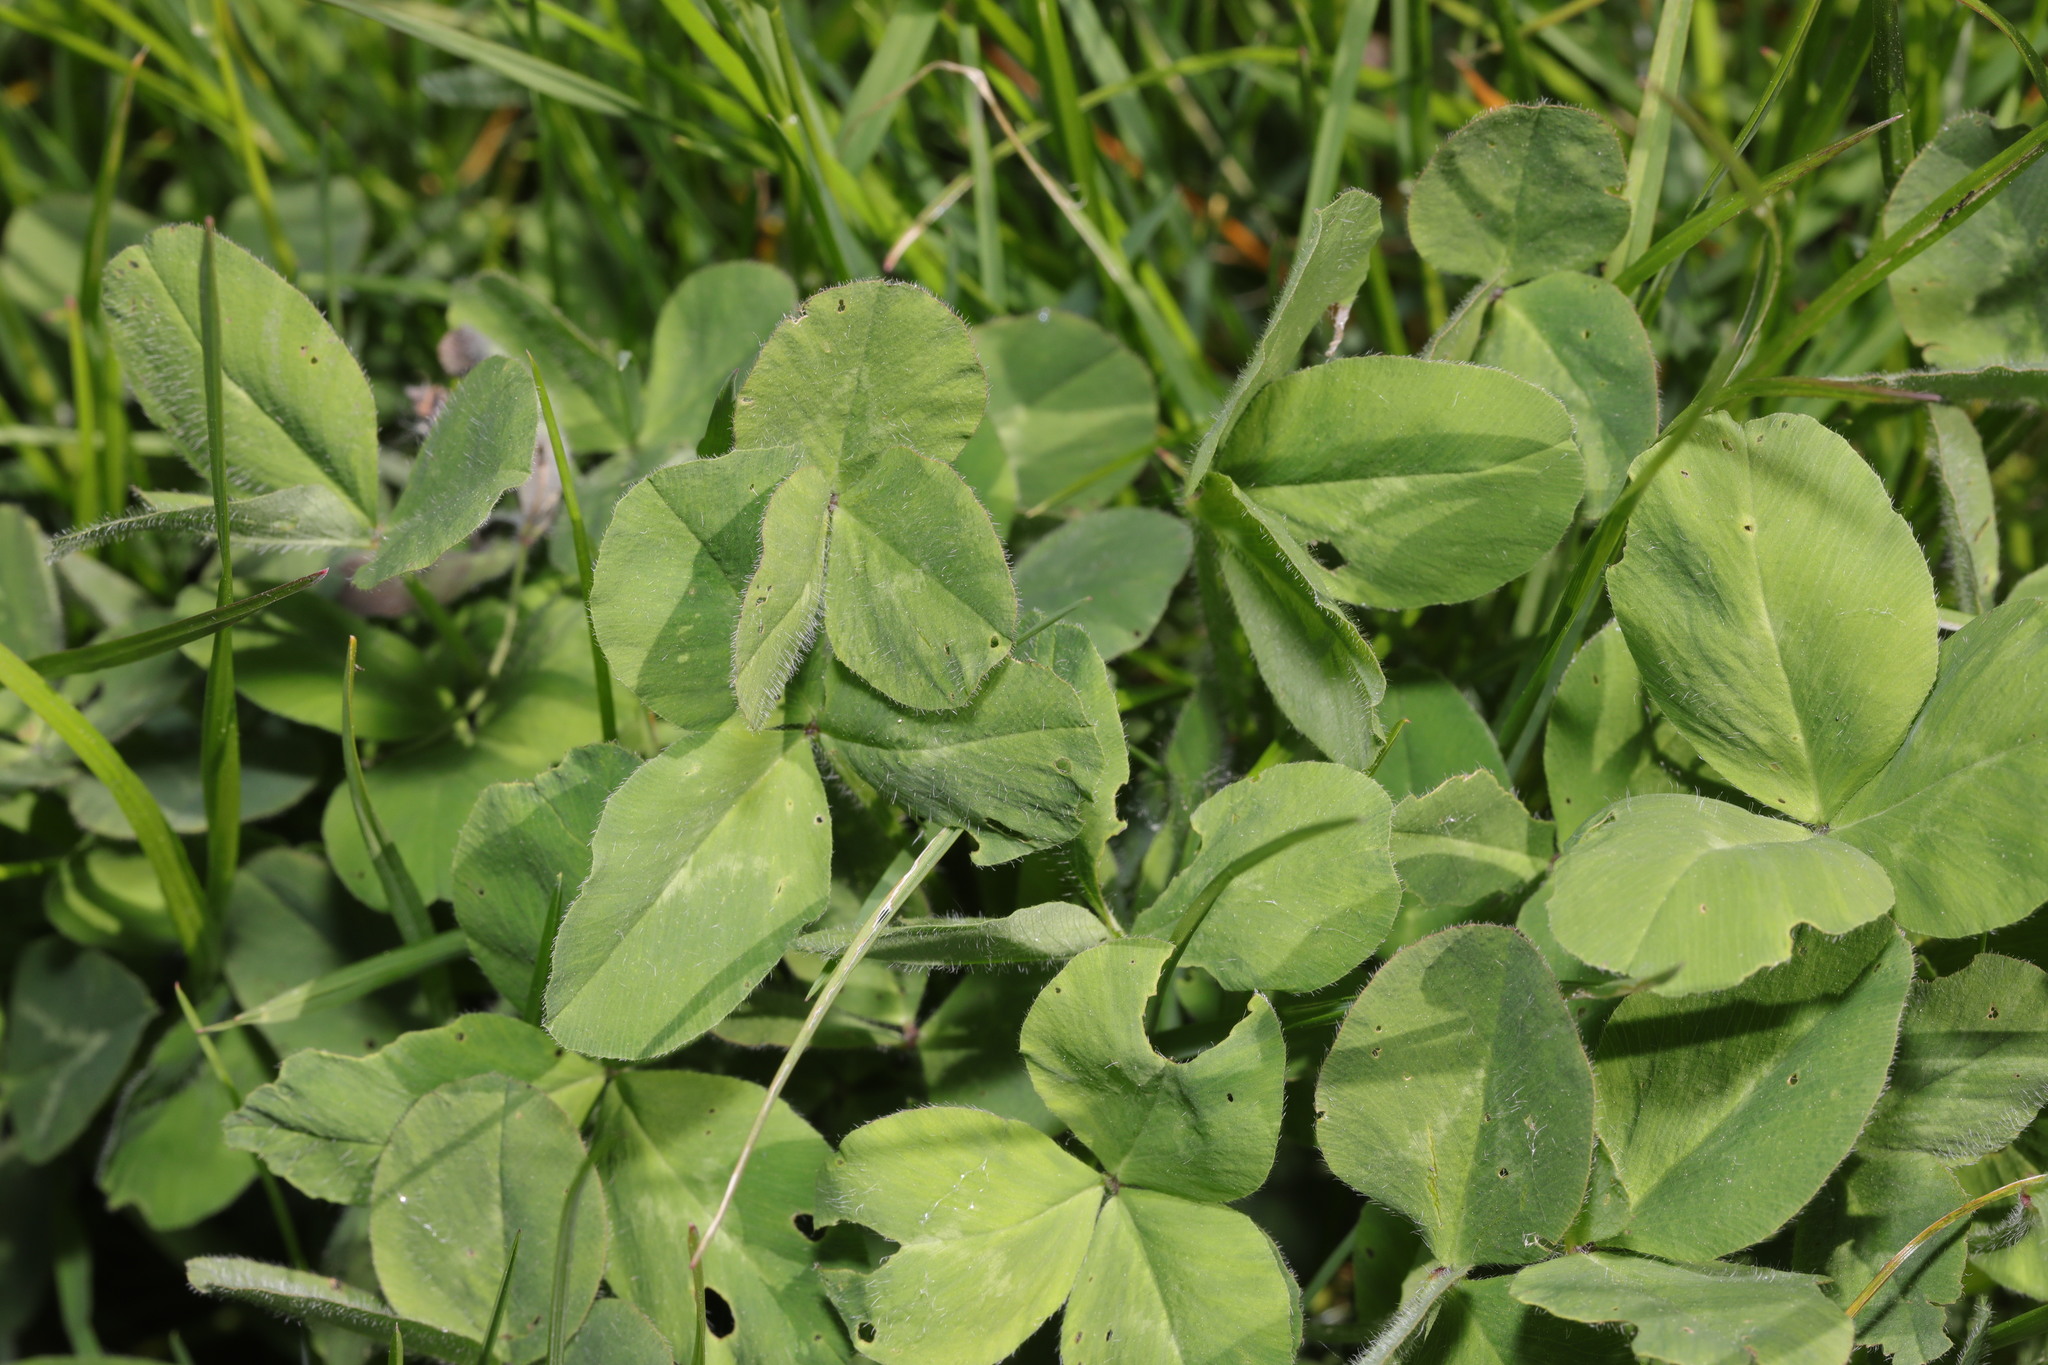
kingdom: Plantae
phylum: Tracheophyta
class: Magnoliopsida
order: Fabales
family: Fabaceae
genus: Trifolium
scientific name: Trifolium pratense
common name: Red clover
